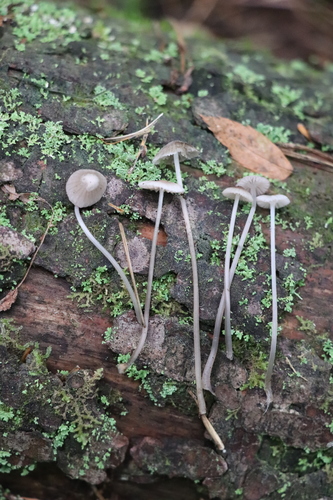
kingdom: Fungi
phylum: Basidiomycota
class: Agaricomycetes
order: Agaricales
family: Mycenaceae
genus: Mycena
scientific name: Mycena rubromarginata
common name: Red edge bonnet
